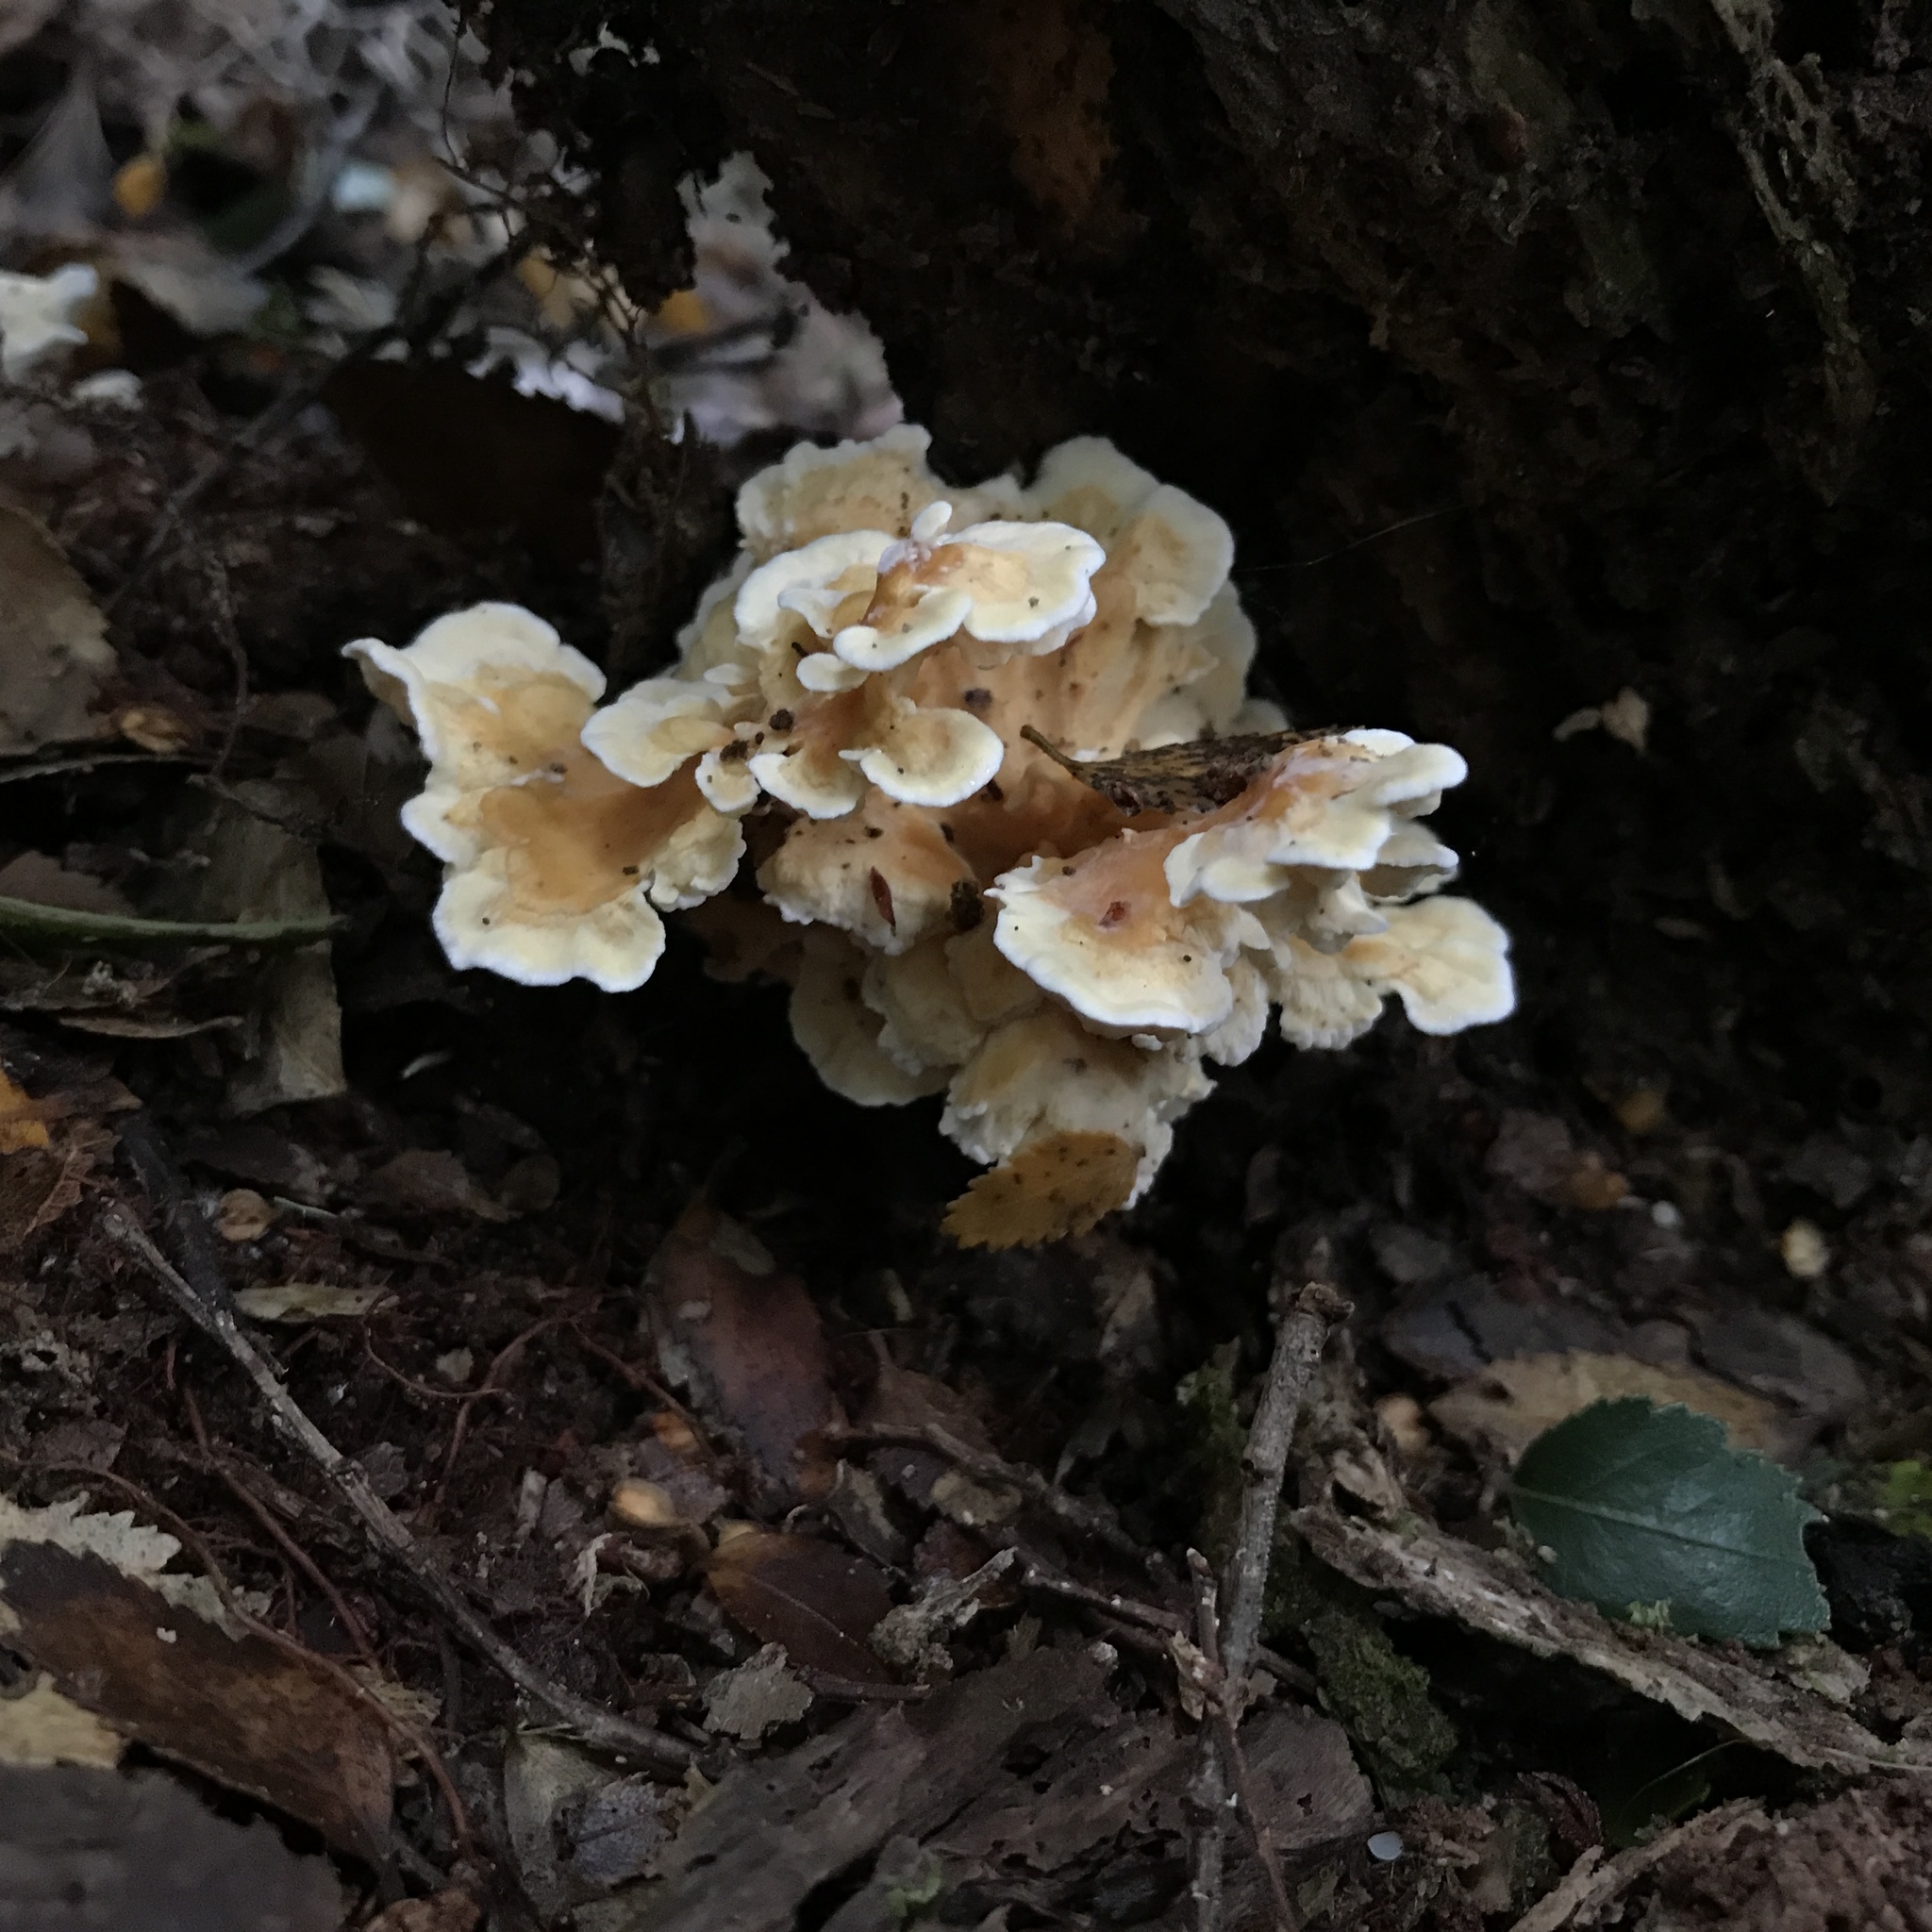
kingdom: Fungi
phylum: Basidiomycota
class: Agaricomycetes
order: Amylocorticiales
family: Amylocorticiaceae
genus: Podoserpula
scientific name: Podoserpula aliweni
